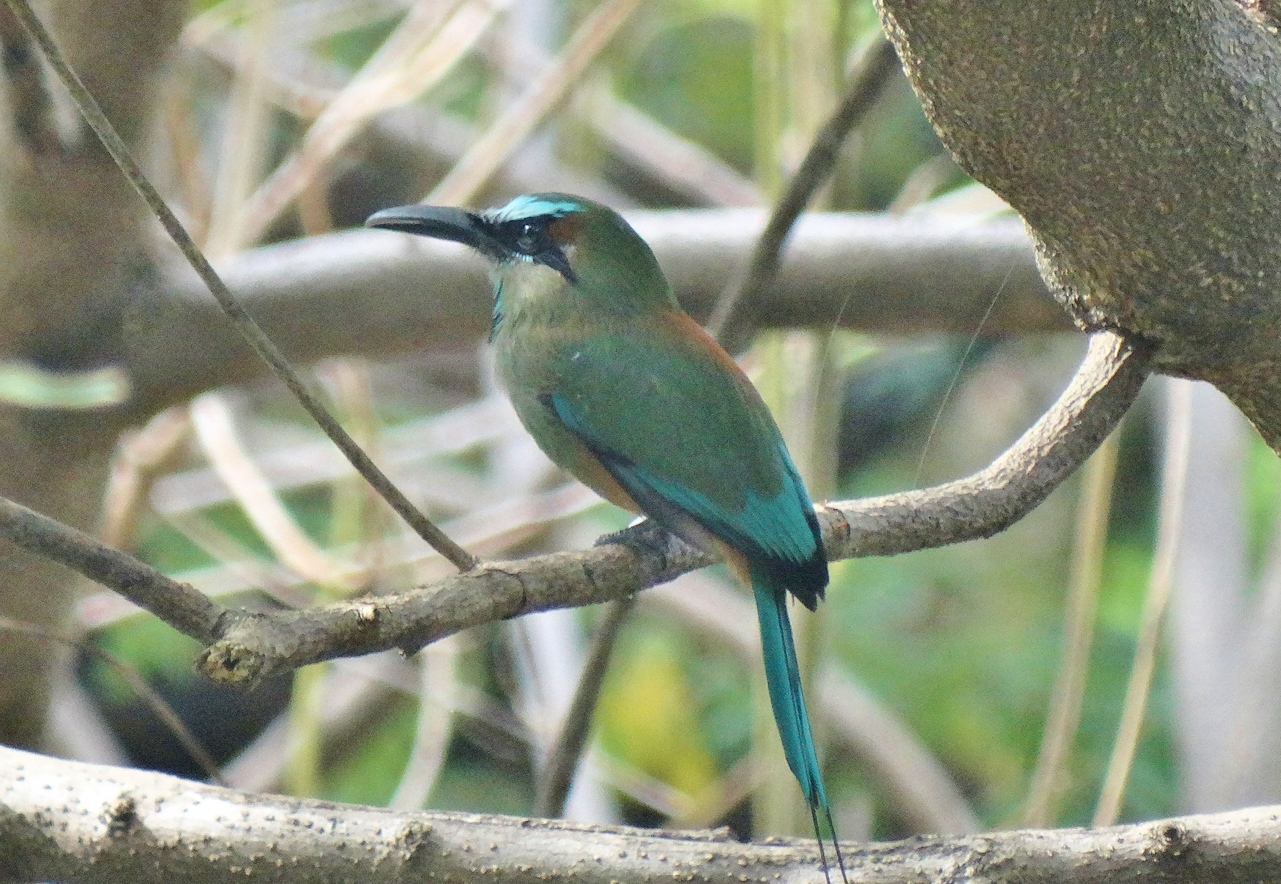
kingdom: Animalia
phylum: Chordata
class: Aves
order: Coraciiformes
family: Momotidae
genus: Eumomota
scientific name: Eumomota superciliosa
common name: Turquoise-browed motmot
